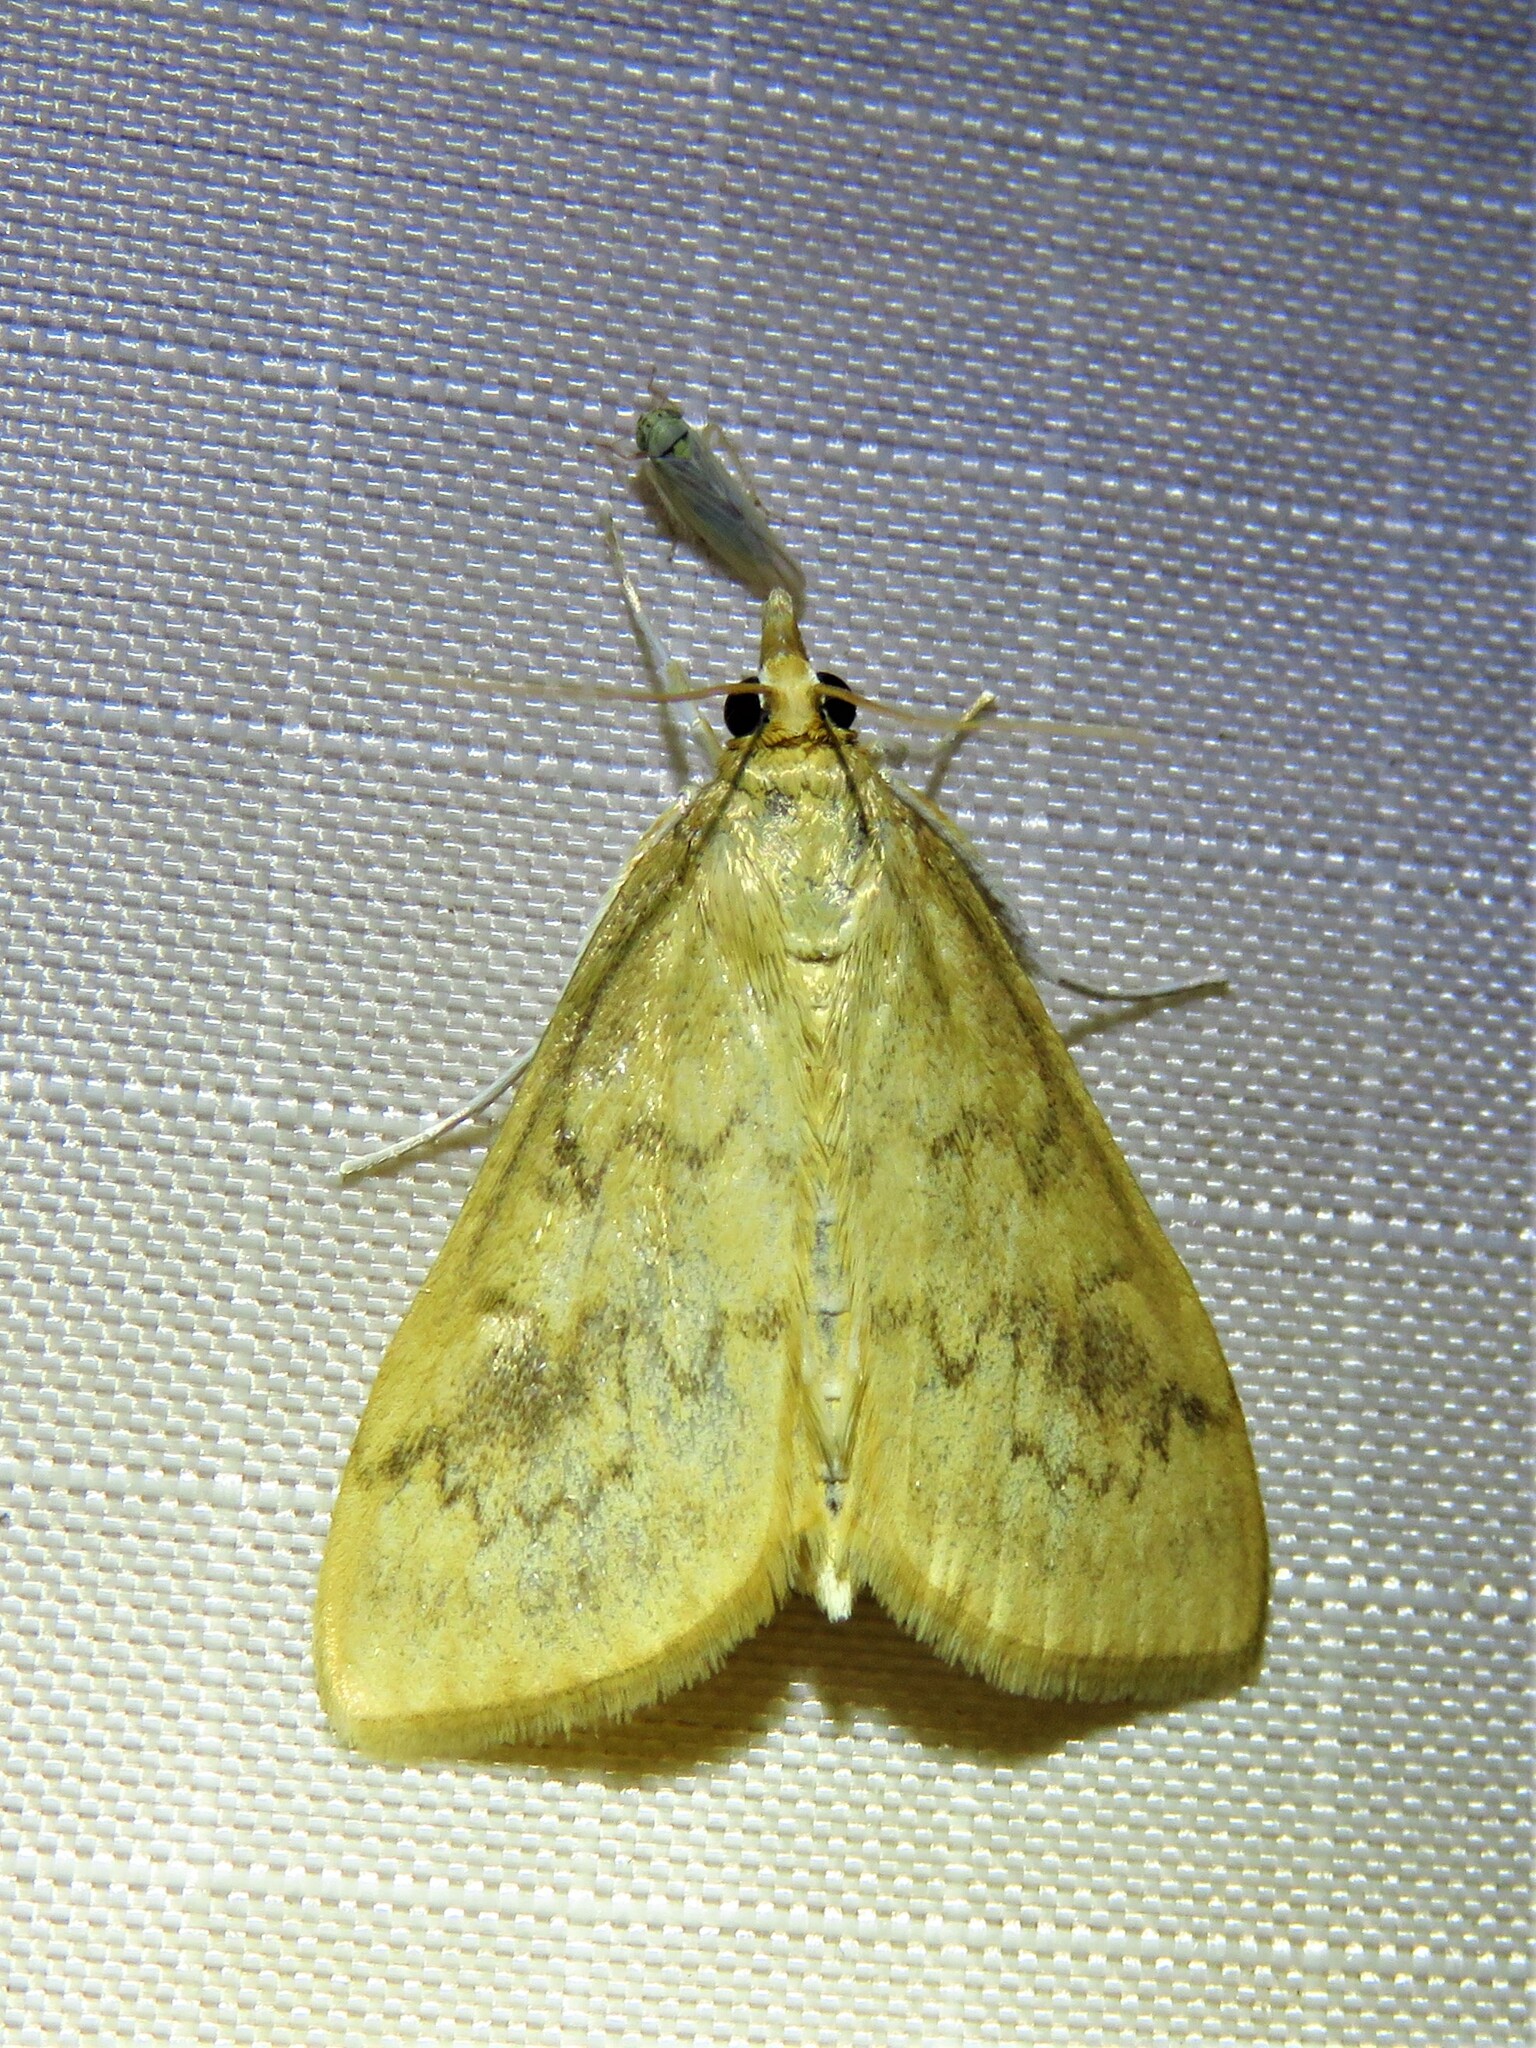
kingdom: Animalia
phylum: Arthropoda
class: Insecta
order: Lepidoptera
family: Crambidae
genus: Ostrinia
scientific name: Ostrinia penitalis
